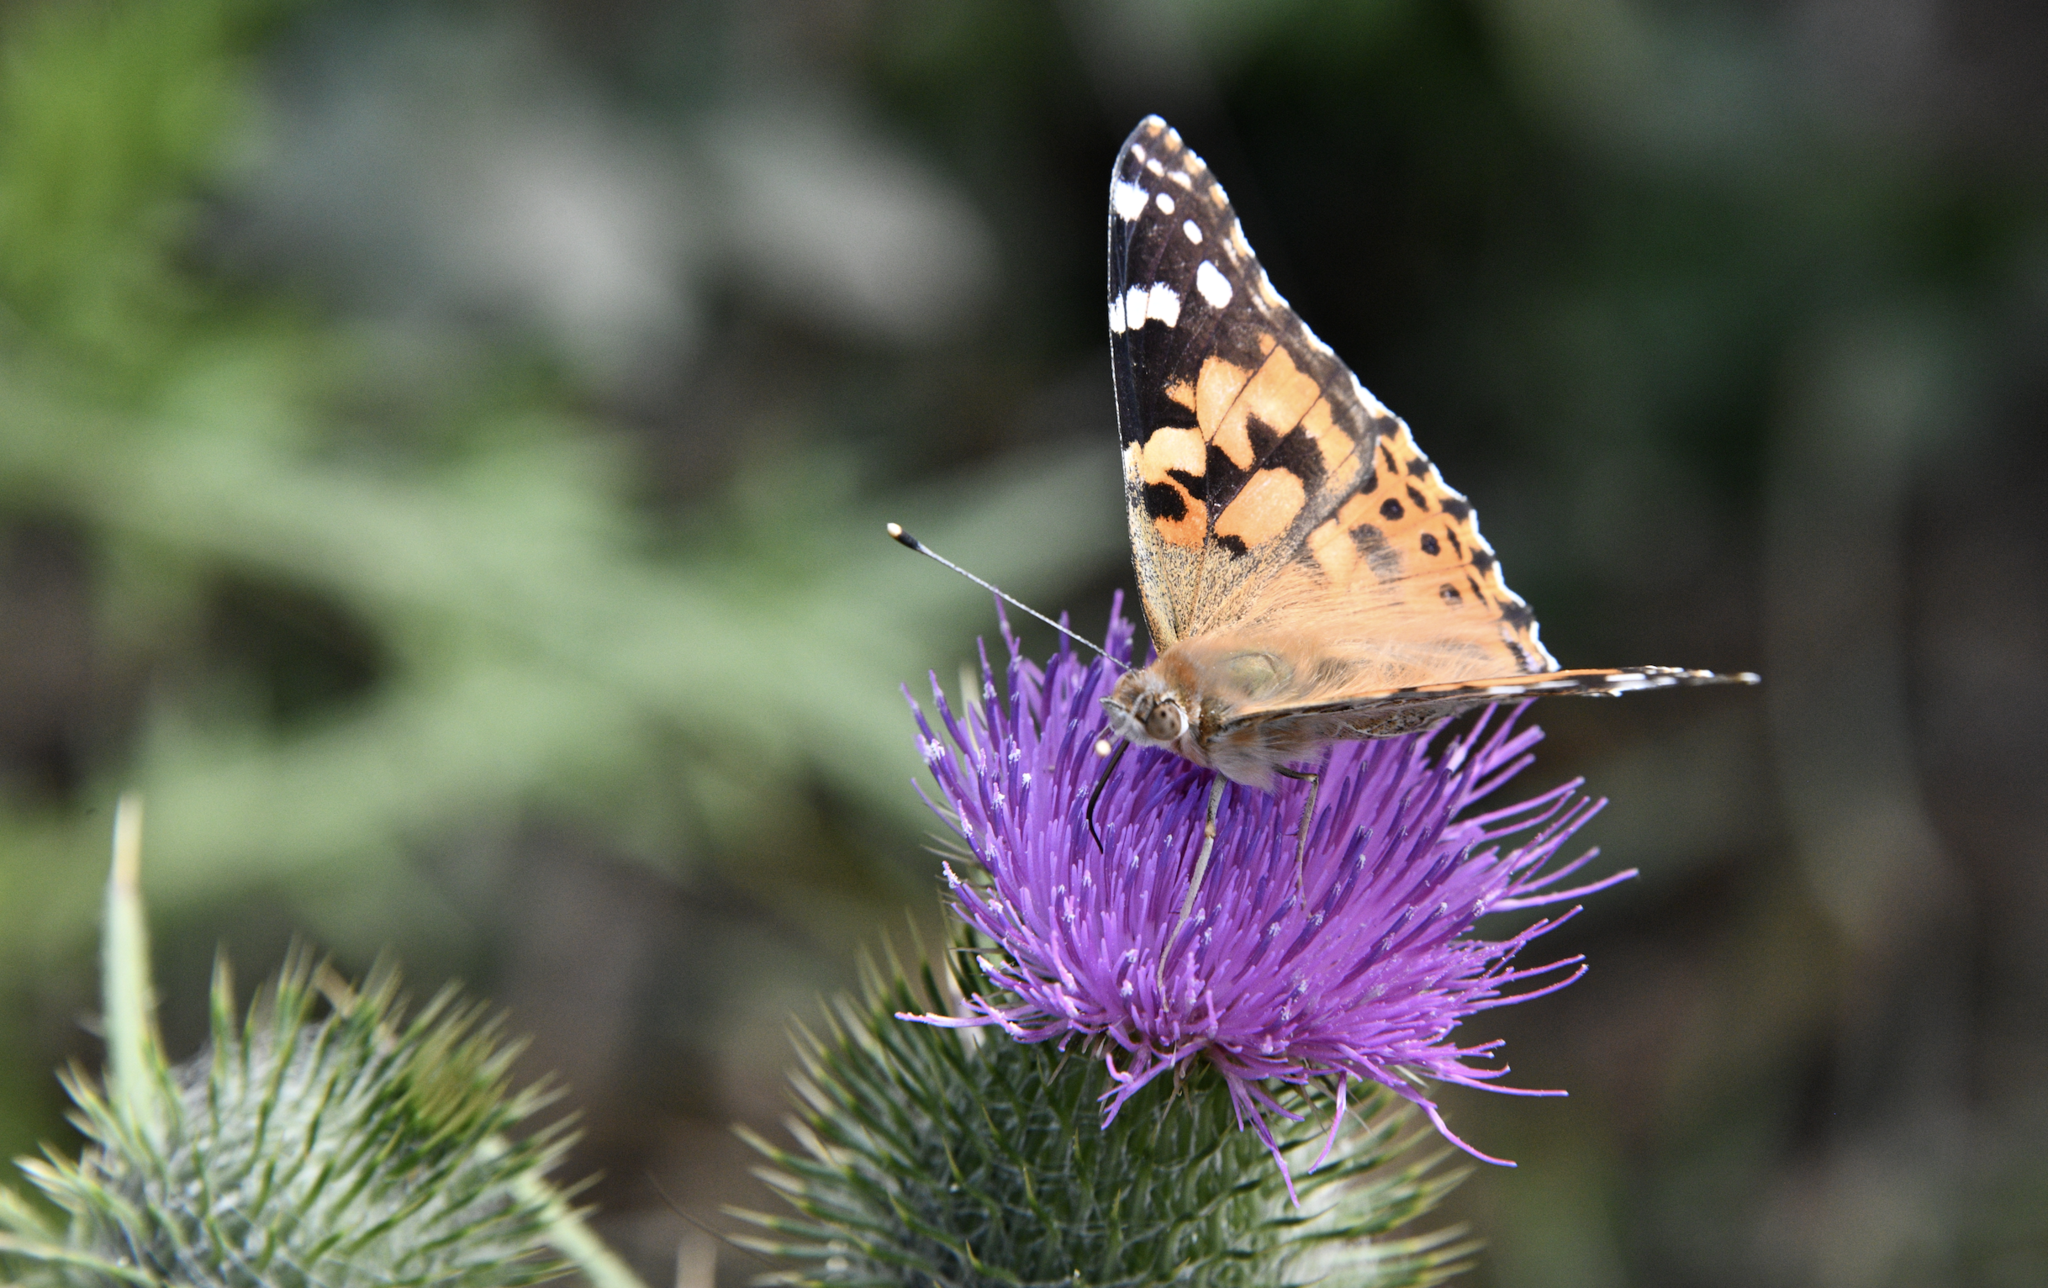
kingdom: Animalia
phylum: Arthropoda
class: Insecta
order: Lepidoptera
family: Nymphalidae
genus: Vanessa
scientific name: Vanessa cardui
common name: Painted lady
